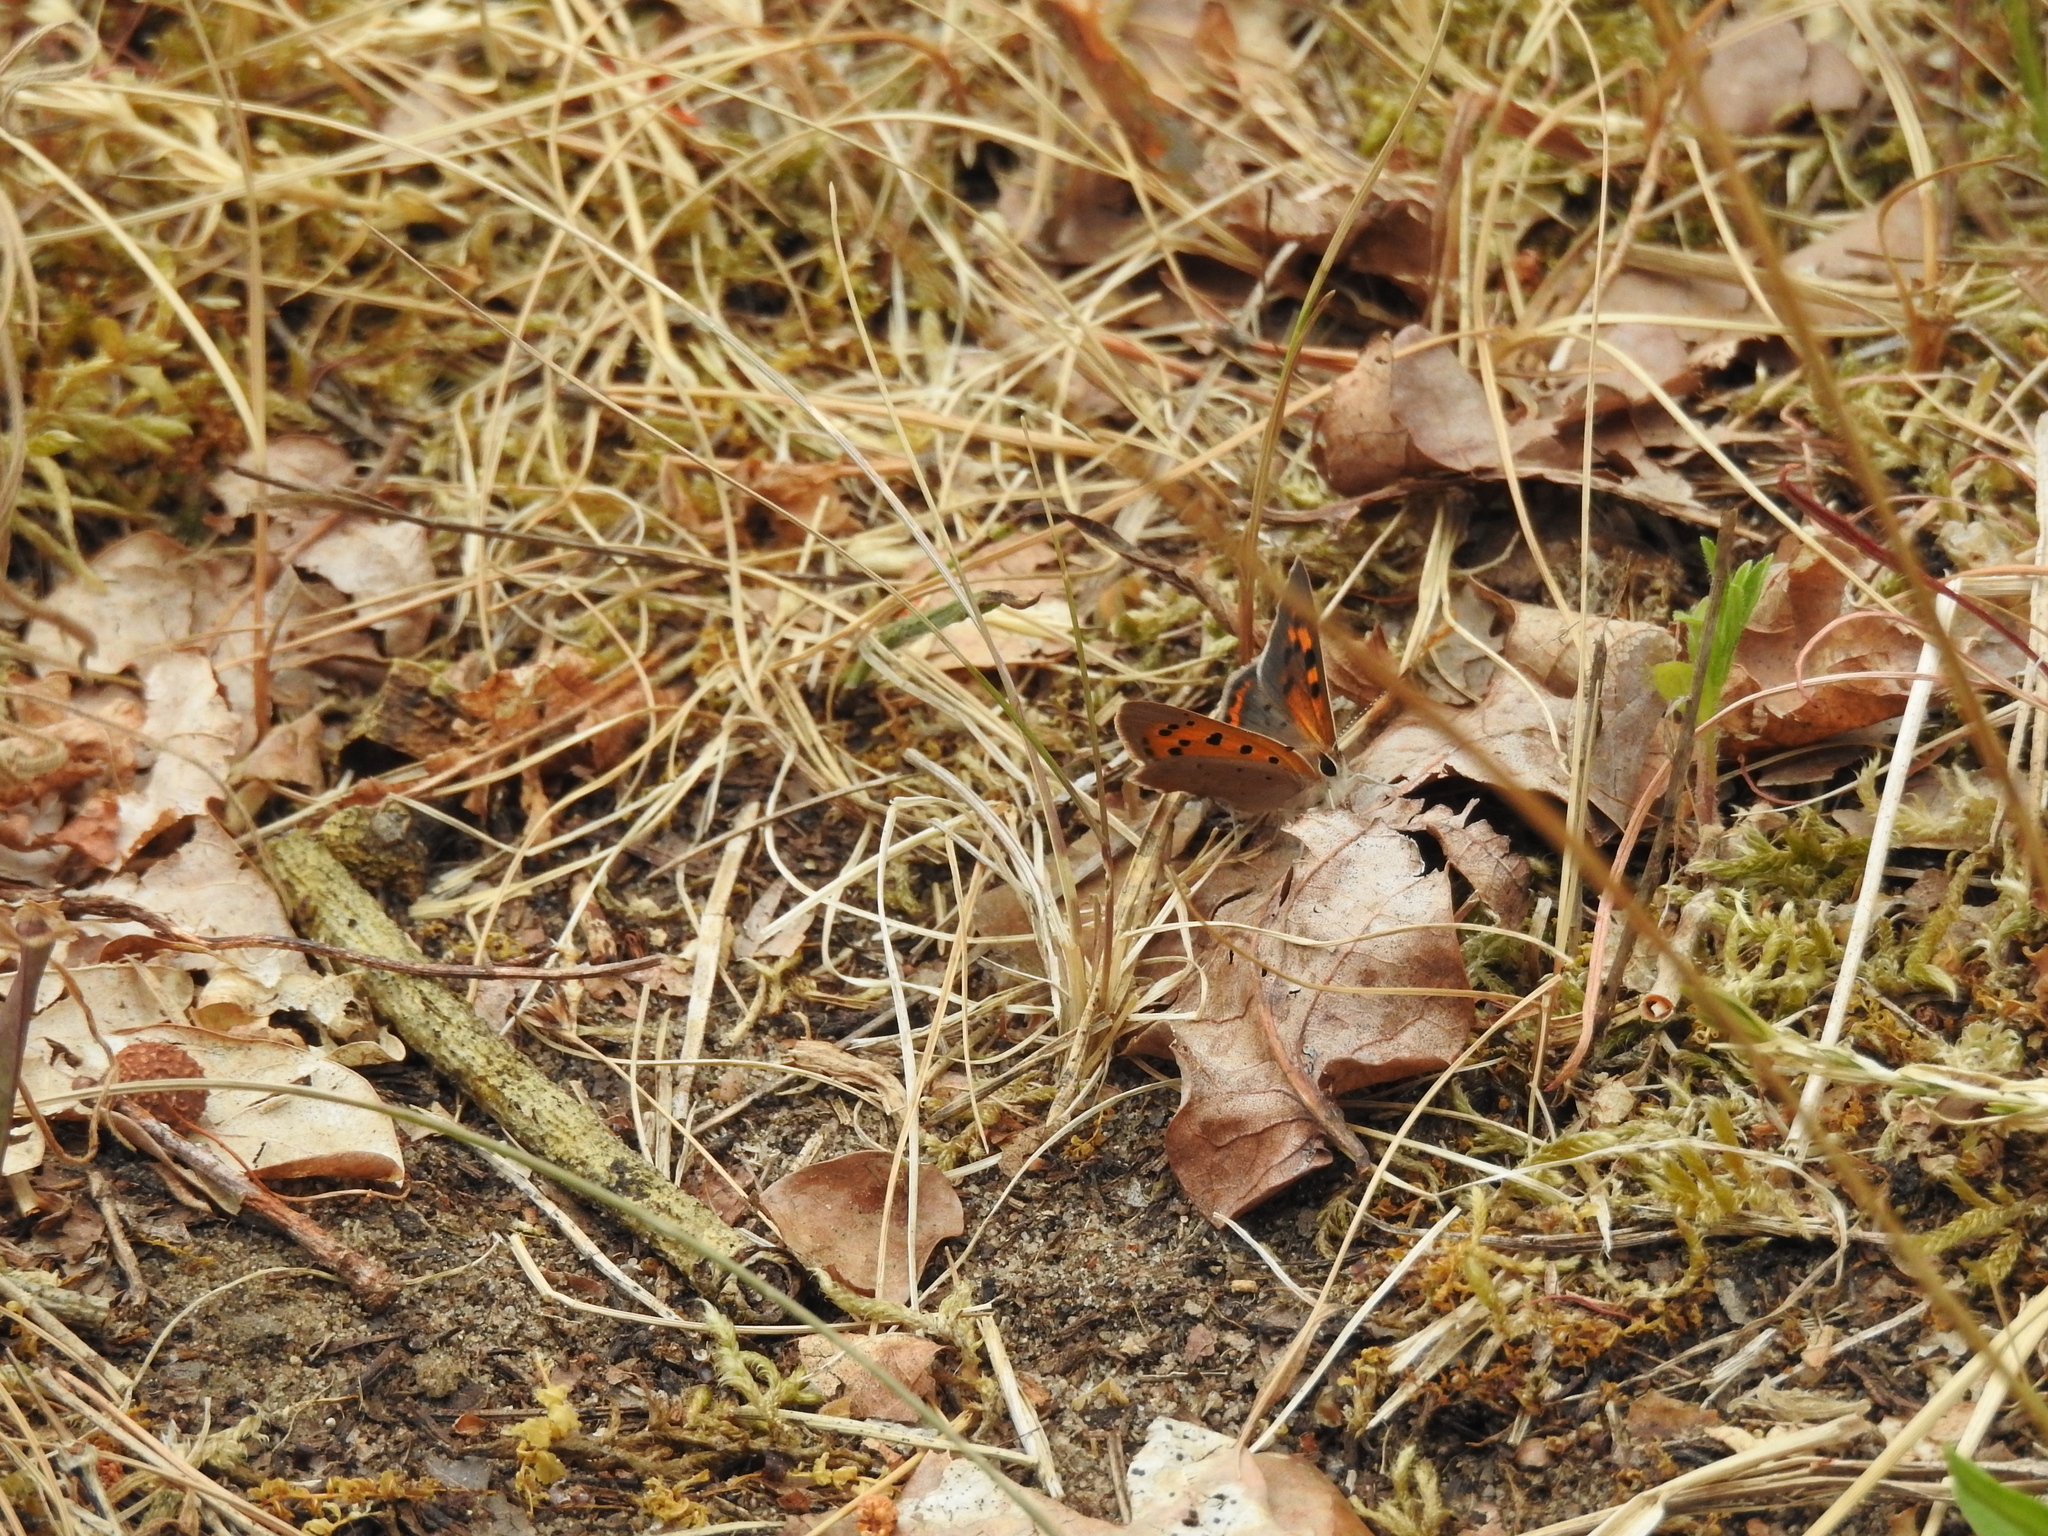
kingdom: Animalia
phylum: Arthropoda
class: Insecta
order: Lepidoptera
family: Lycaenidae
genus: Lycaena
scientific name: Lycaena phlaeas
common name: Small copper
